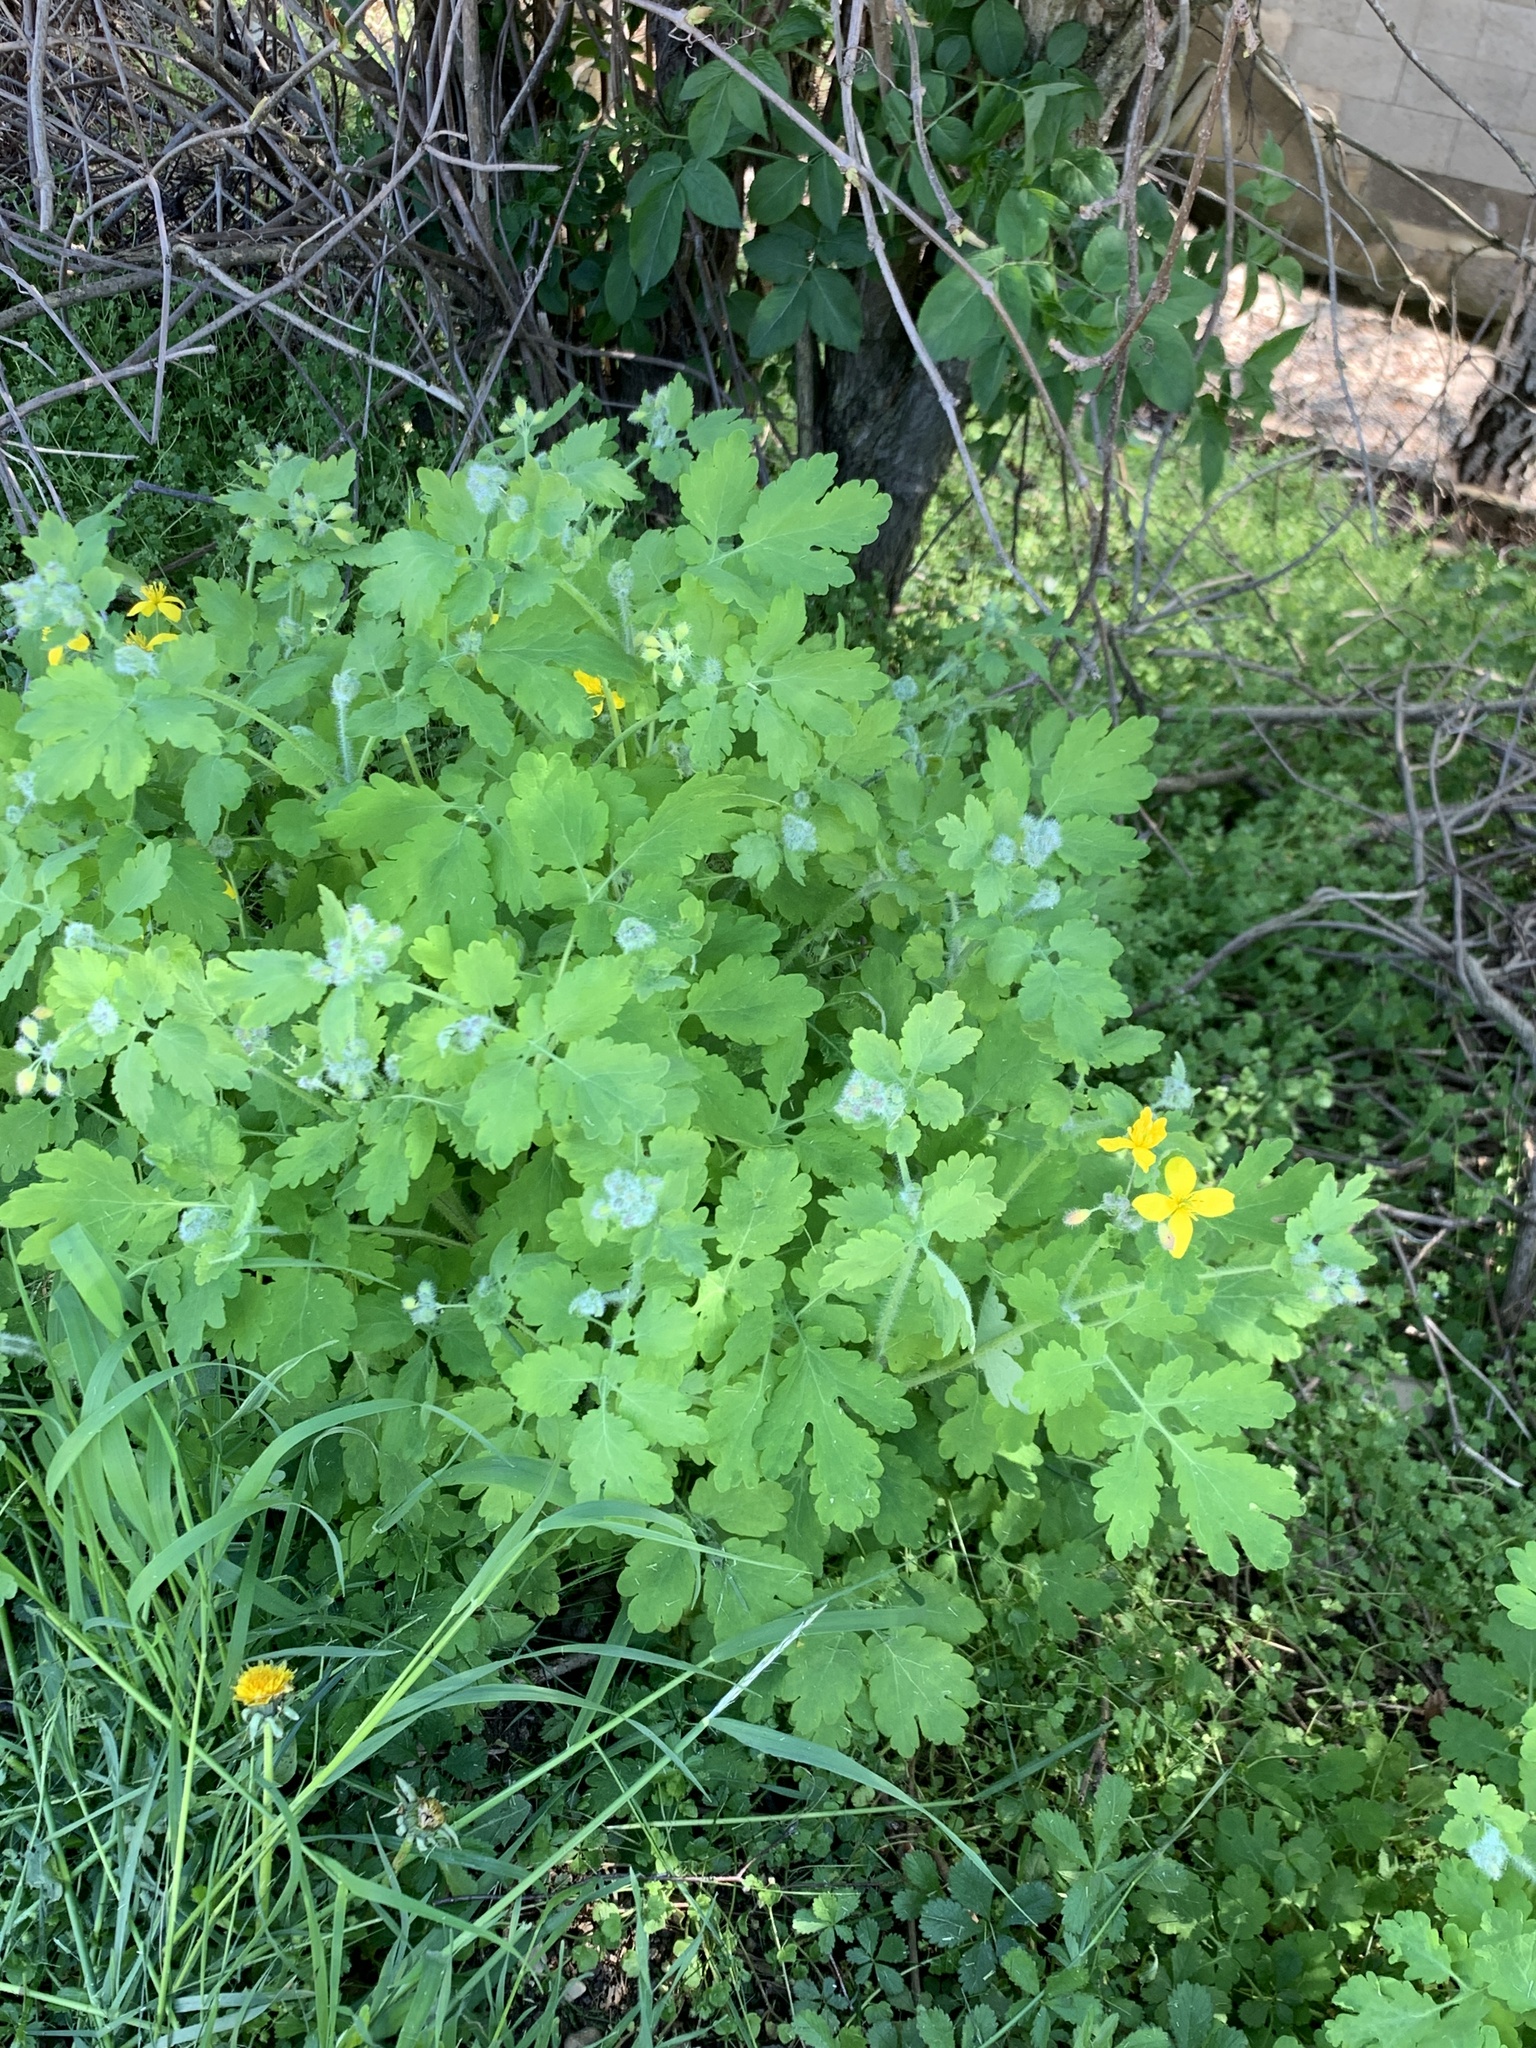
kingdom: Plantae
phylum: Tracheophyta
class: Magnoliopsida
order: Ranunculales
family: Papaveraceae
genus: Chelidonium
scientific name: Chelidonium majus
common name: Greater celandine
